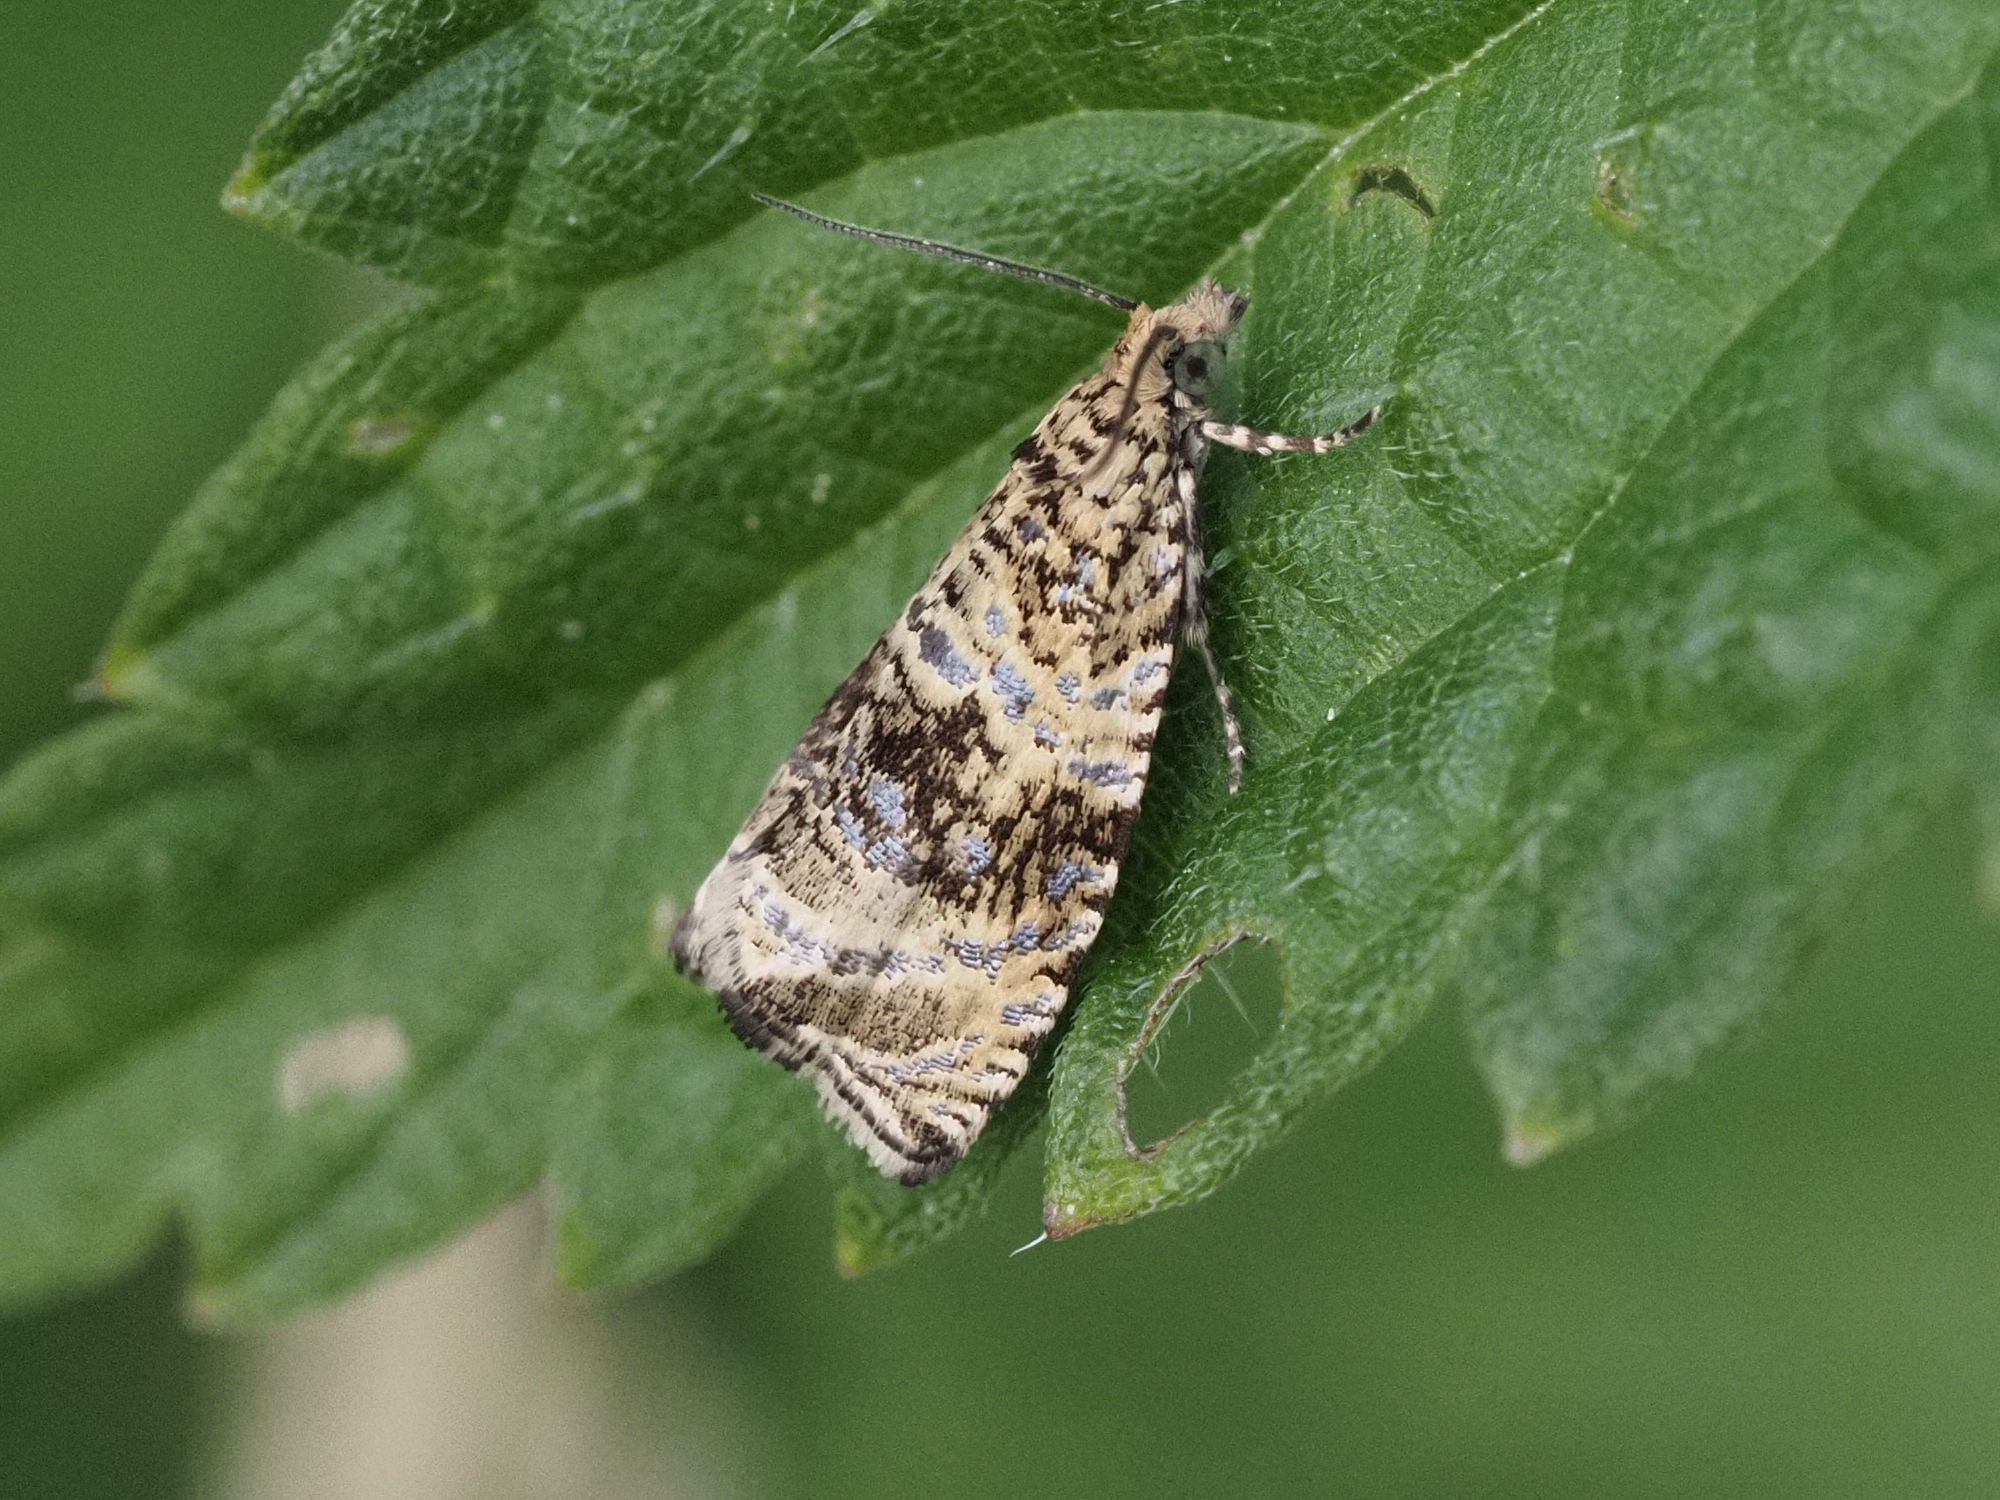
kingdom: Animalia
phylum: Arthropoda
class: Insecta
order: Lepidoptera
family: Tortricidae
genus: Syricoris
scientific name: Syricoris lacunana
